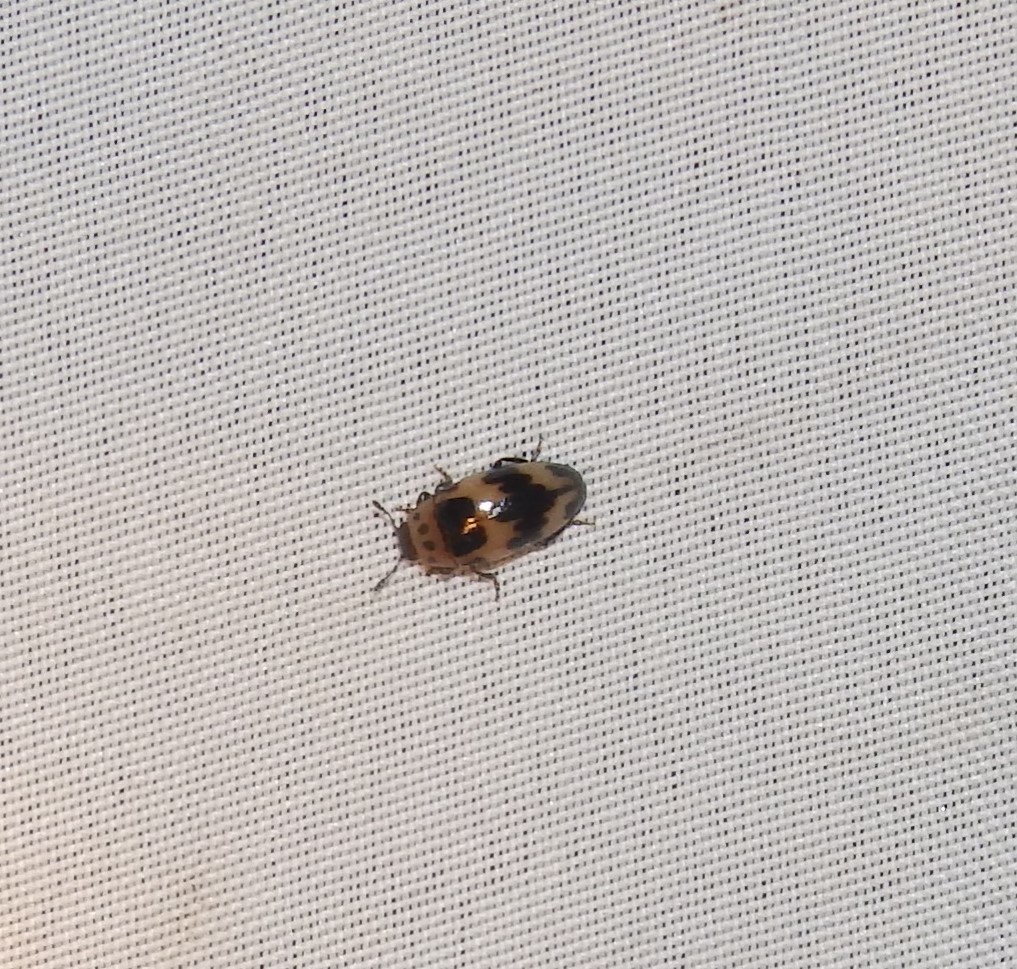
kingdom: Animalia
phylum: Arthropoda
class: Insecta
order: Coleoptera
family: Erotylidae
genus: Ischyrus
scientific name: Ischyrus quadripunctatus
